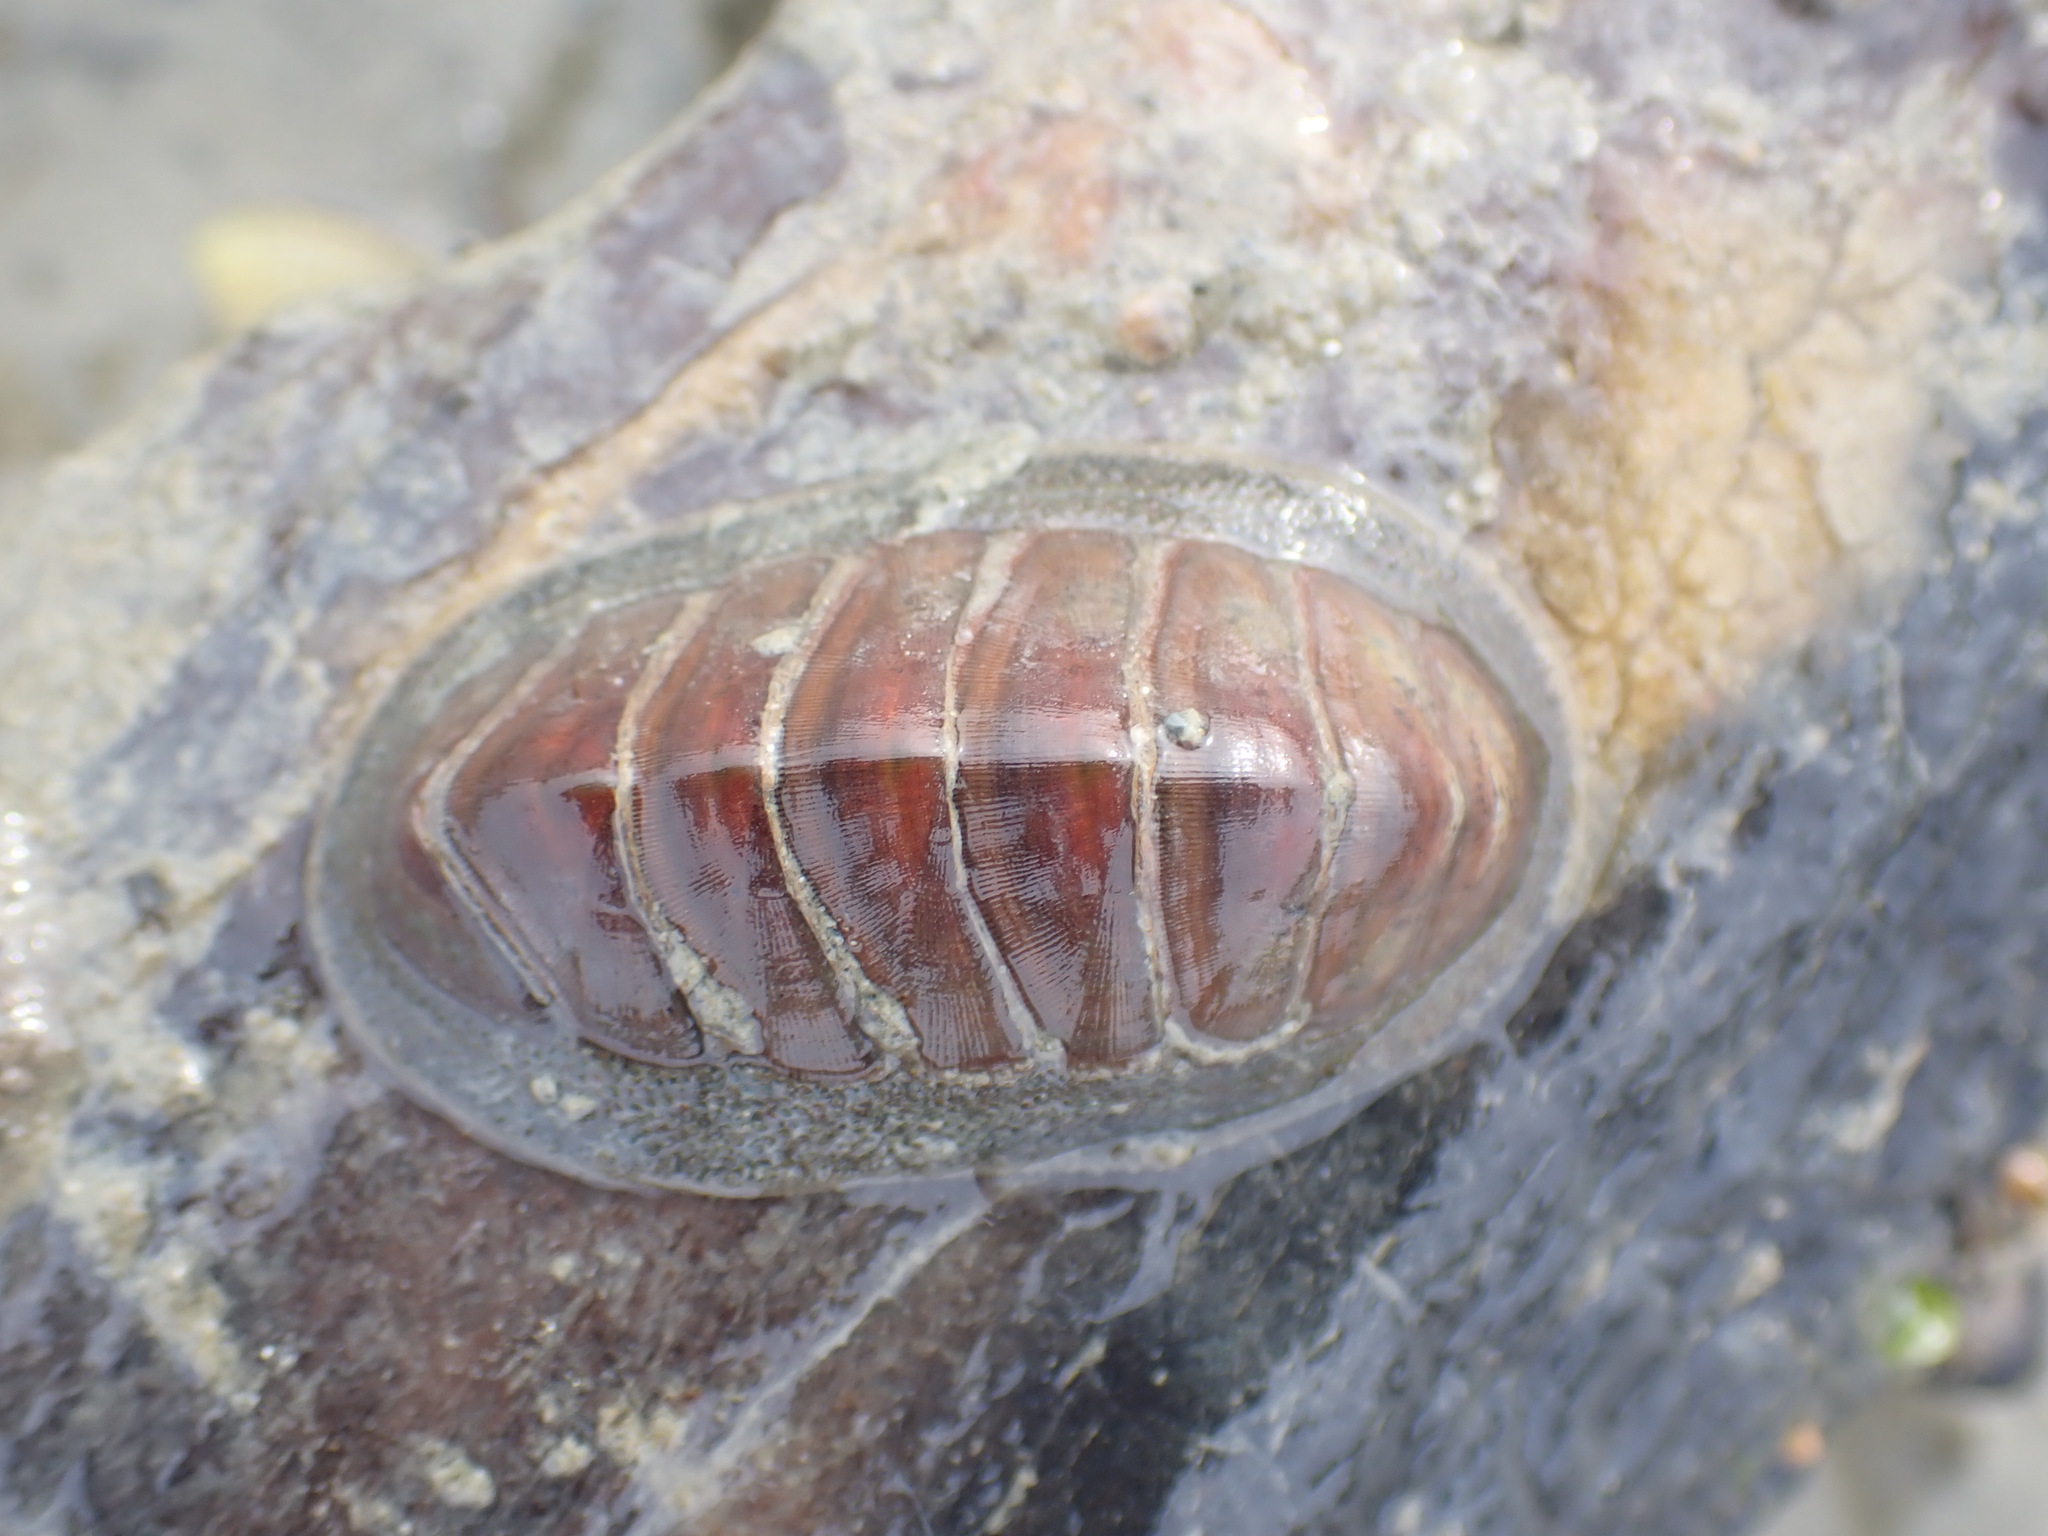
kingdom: Animalia
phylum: Mollusca
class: Polyplacophora
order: Chitonida
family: Chitonidae
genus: Chiton
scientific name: Chiton glaucus
